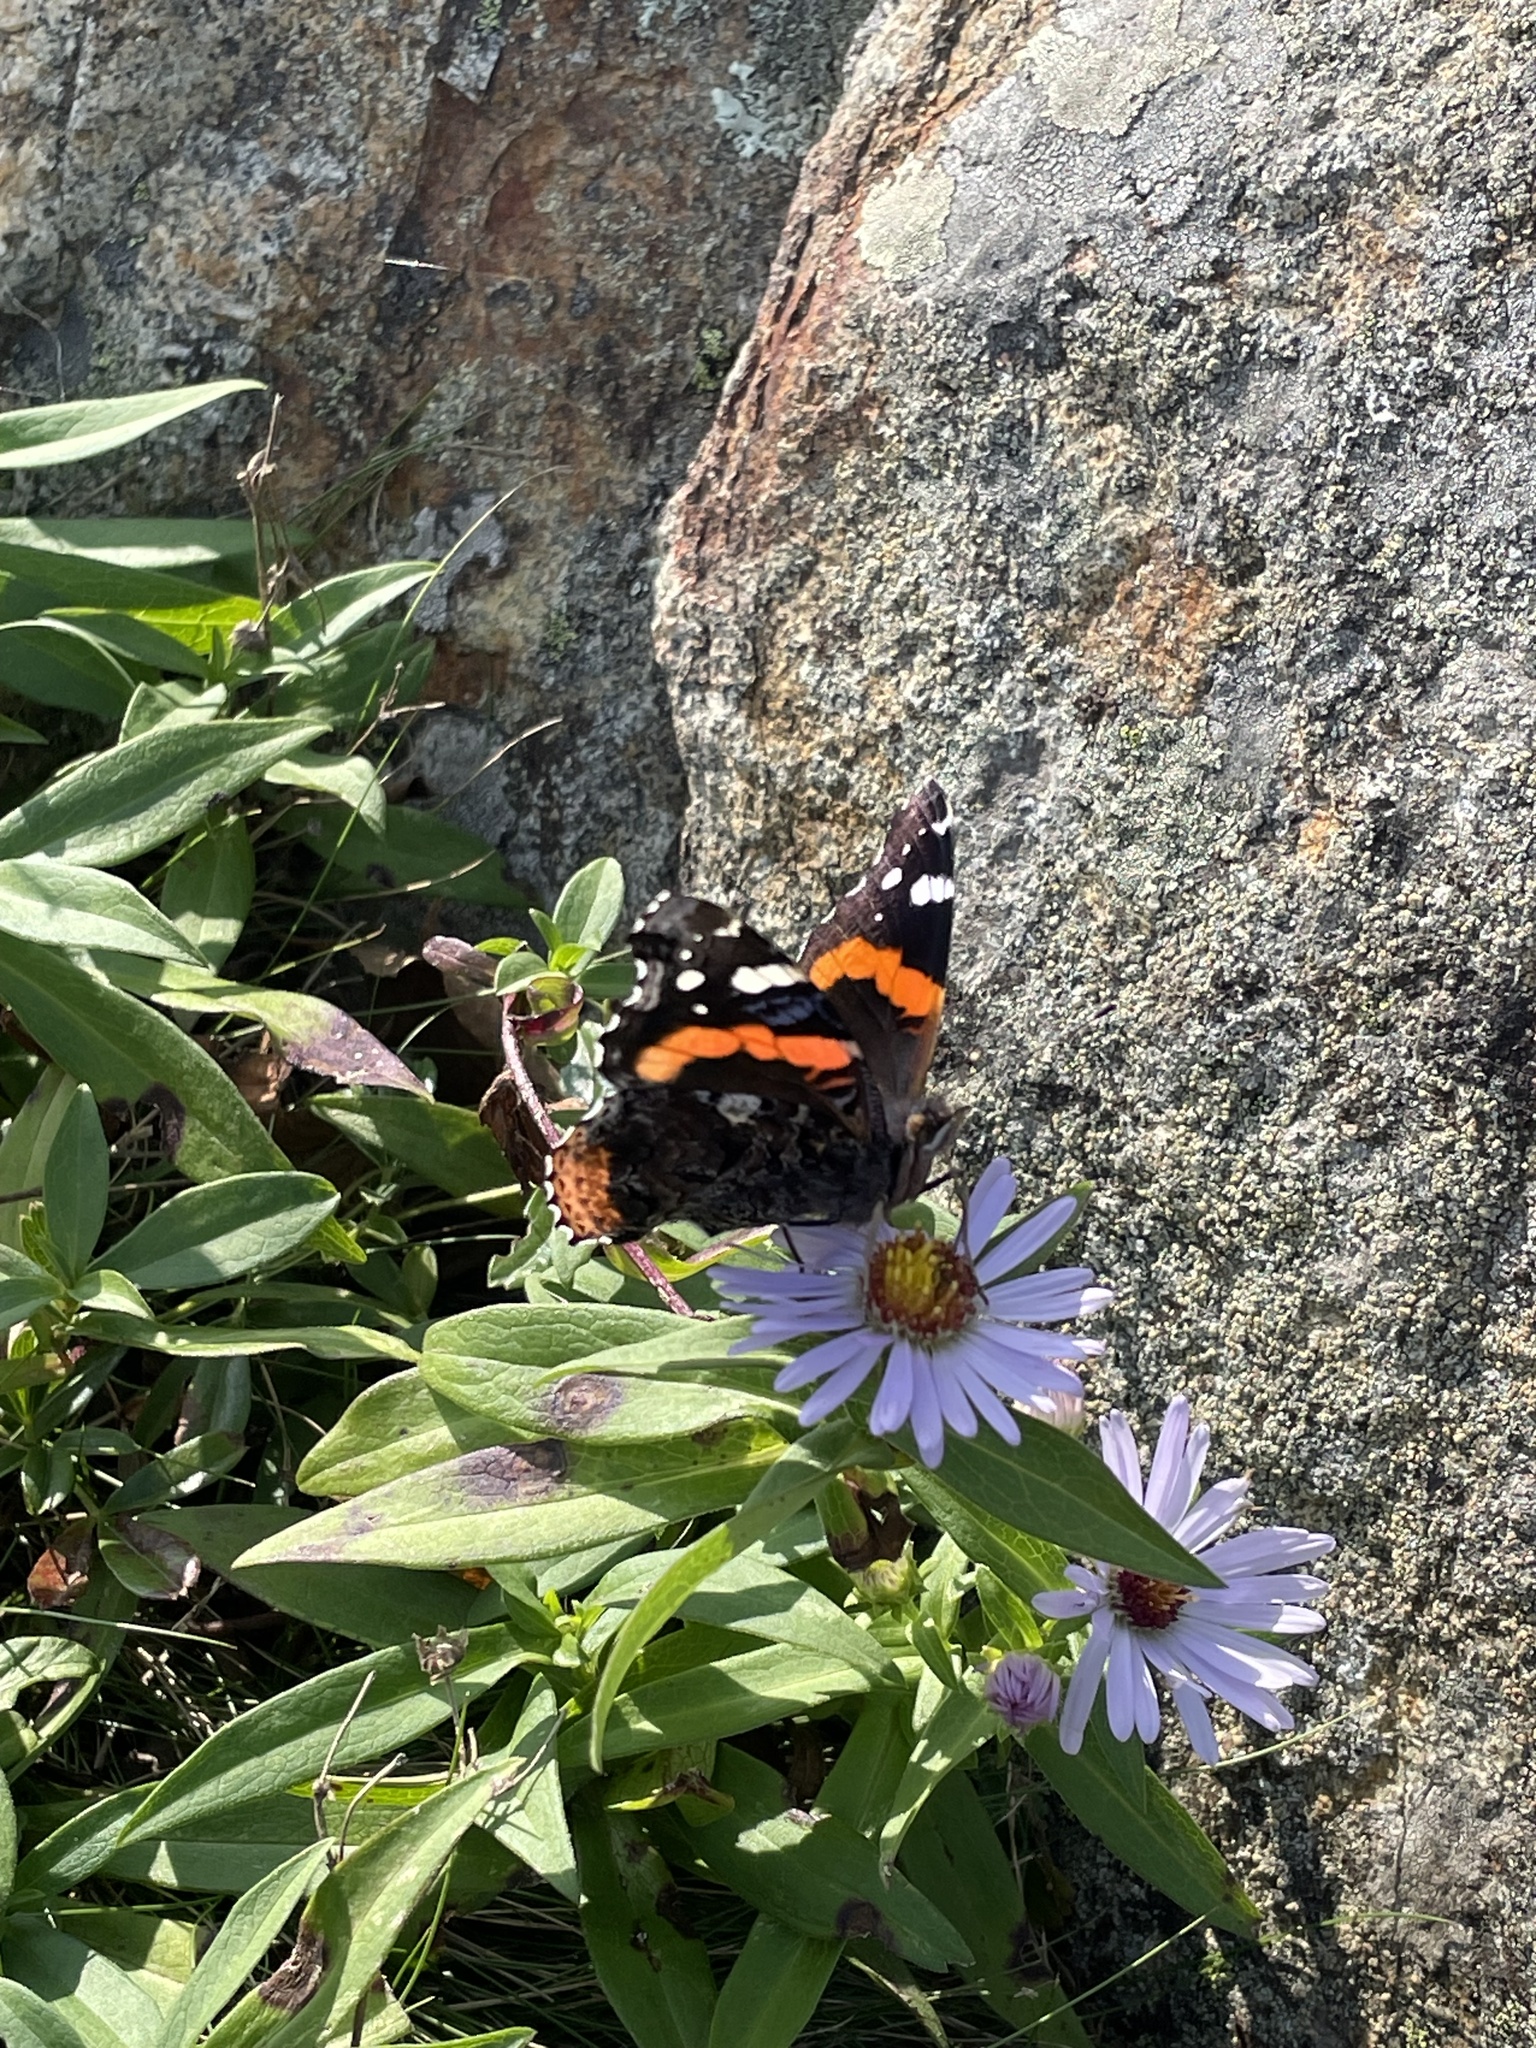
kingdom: Animalia
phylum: Arthropoda
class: Insecta
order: Lepidoptera
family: Nymphalidae
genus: Vanessa
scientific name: Vanessa atalanta
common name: Red admiral
